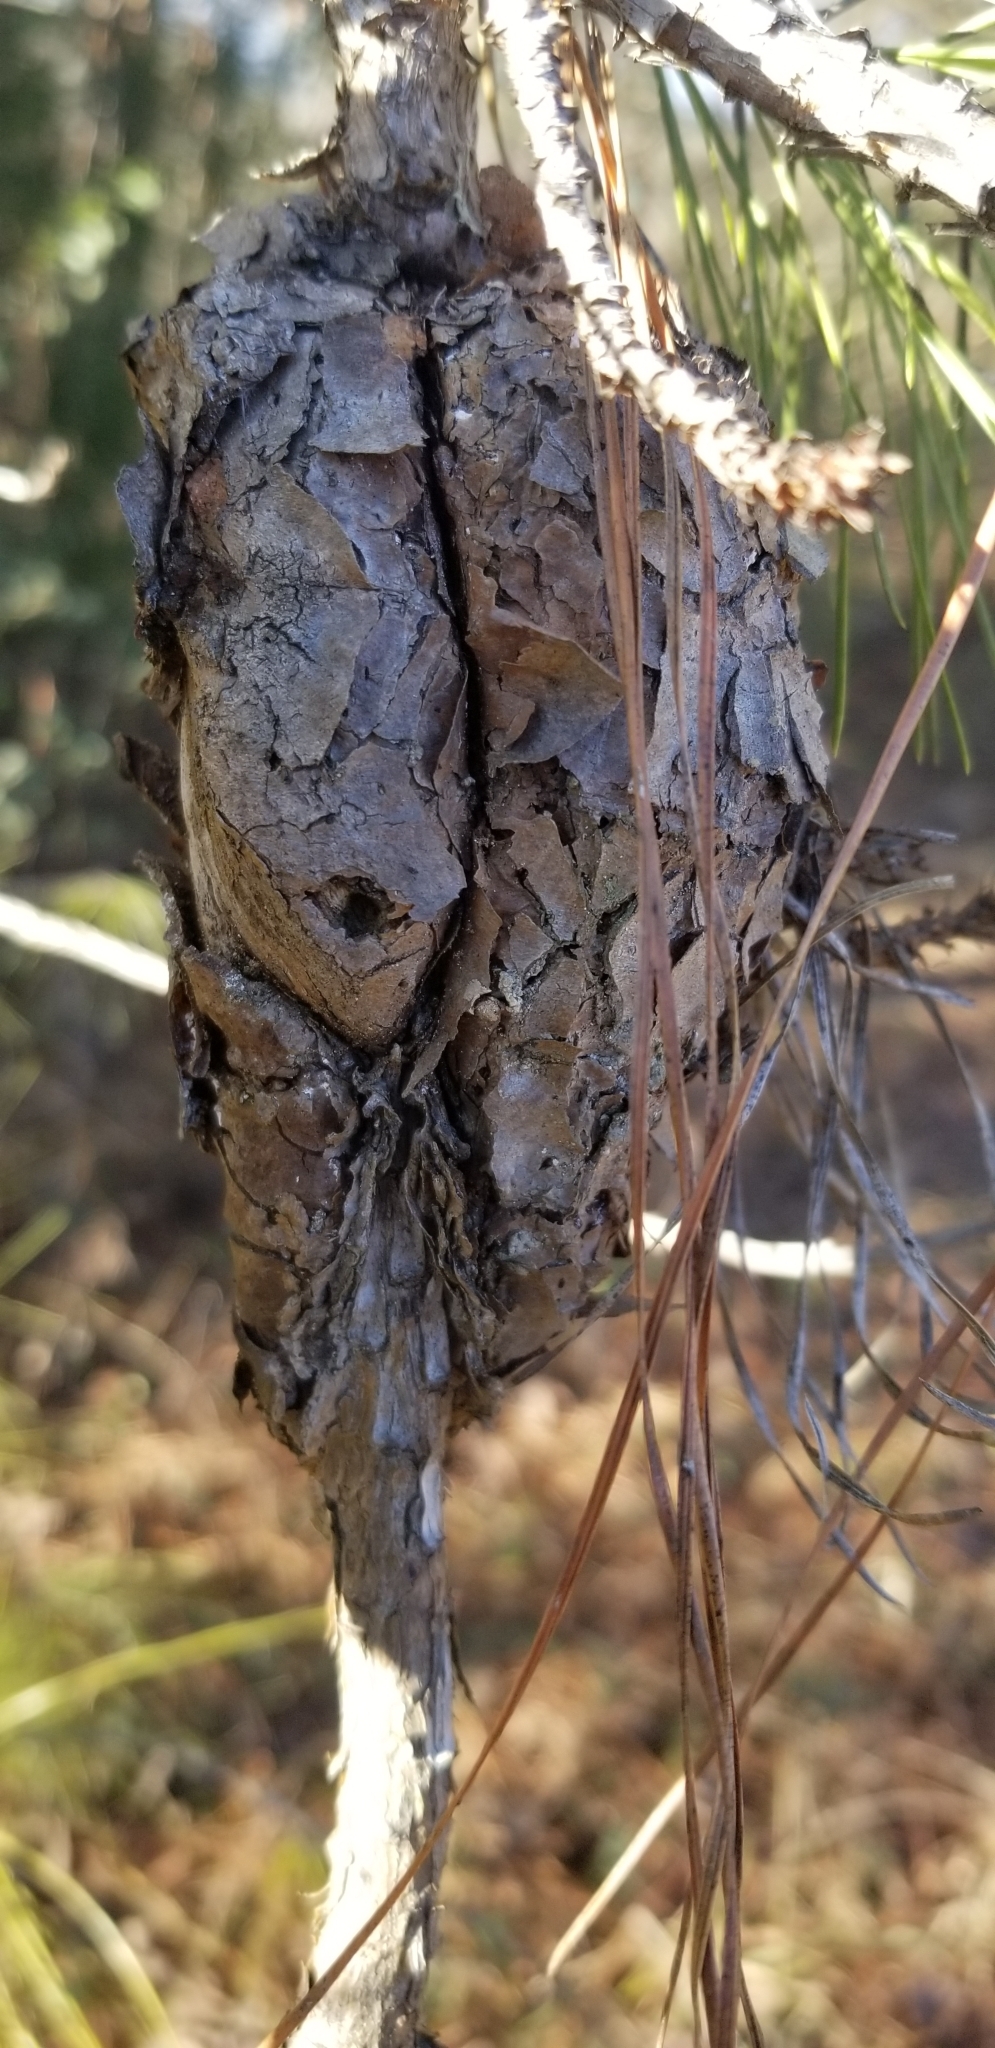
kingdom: Fungi
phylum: Basidiomycota
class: Pucciniomycetes
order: Pucciniales
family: Cronartiaceae
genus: Cronartium
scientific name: Cronartium fusiforme
